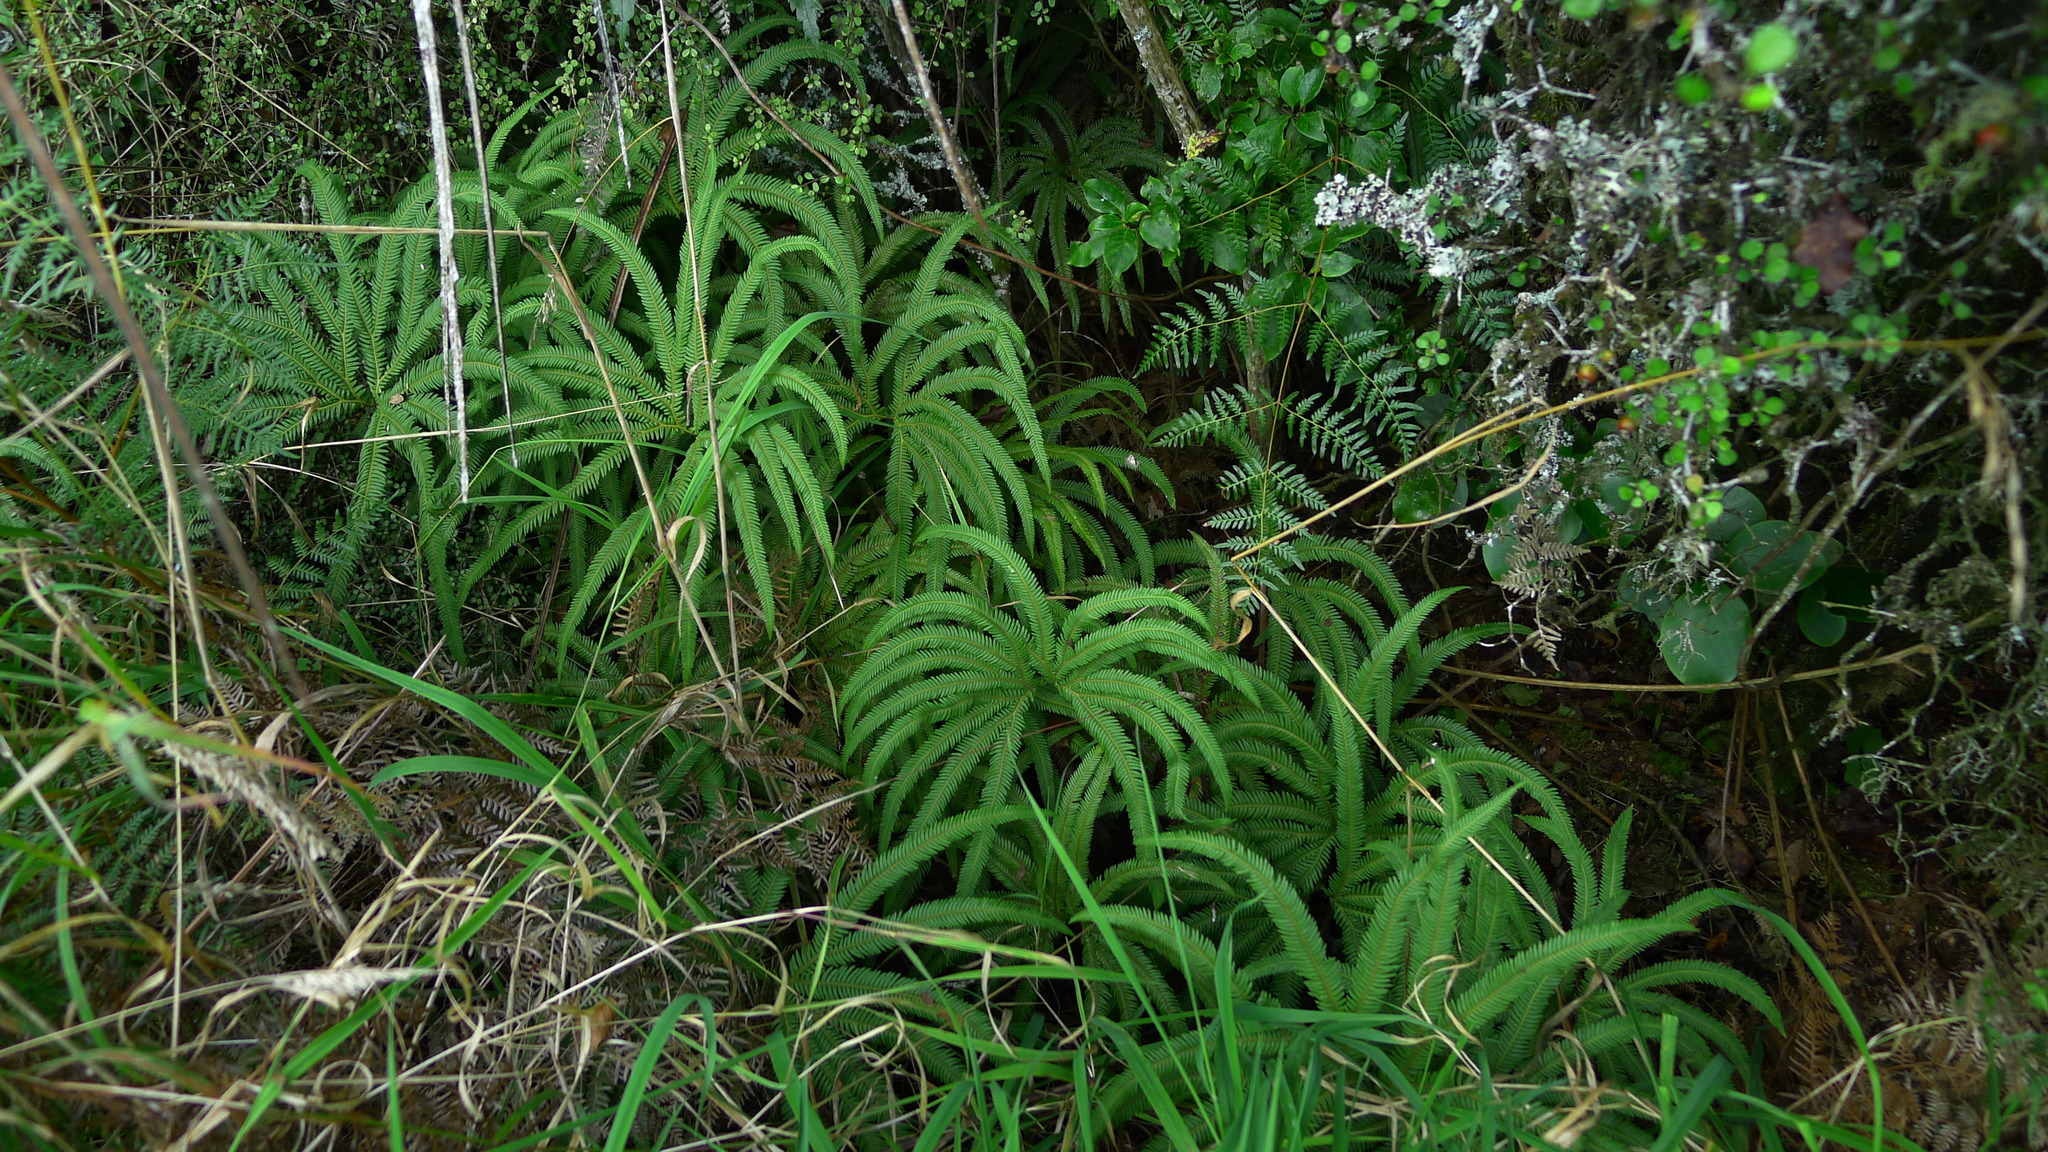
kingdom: Plantae
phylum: Tracheophyta
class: Polypodiopsida
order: Gleicheniales
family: Gleicheniaceae
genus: Sticherus
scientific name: Sticherus cunninghamii
